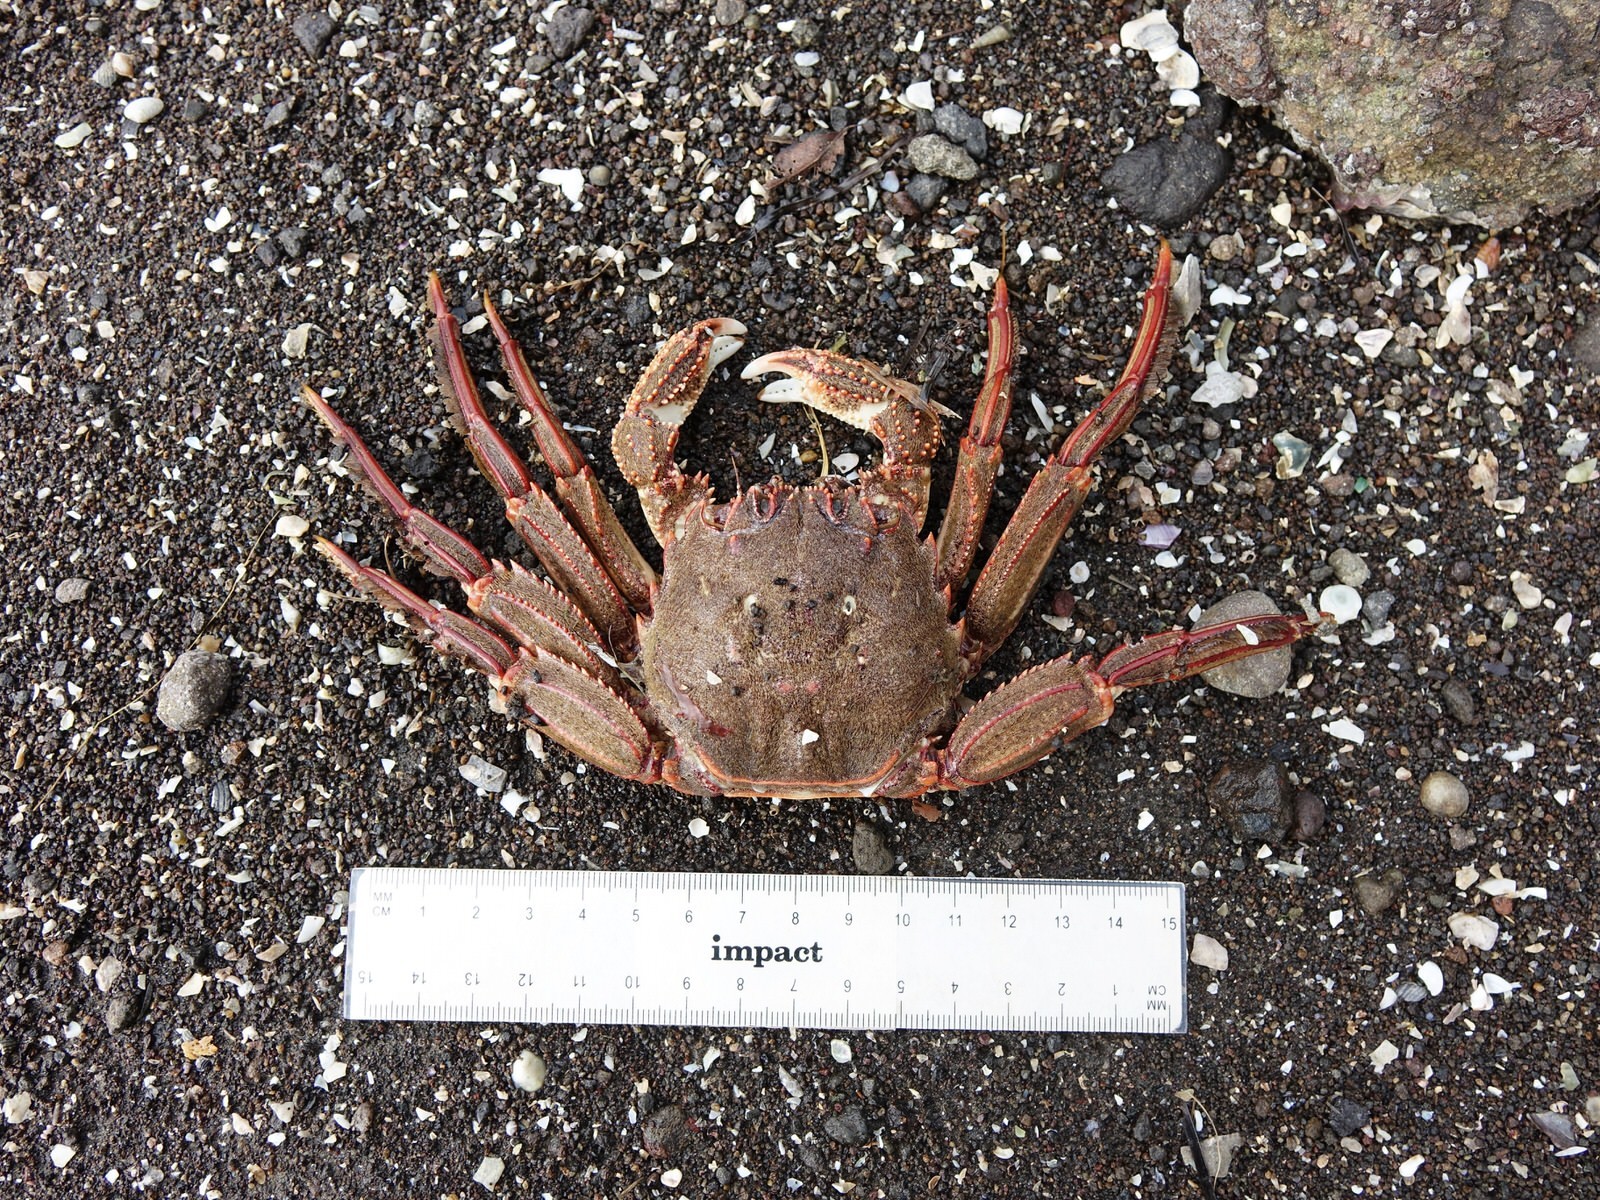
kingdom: Animalia
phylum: Arthropoda
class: Malacostraca
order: Decapoda
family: Plagusiidae
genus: Guinusia
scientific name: Guinusia chabrus
